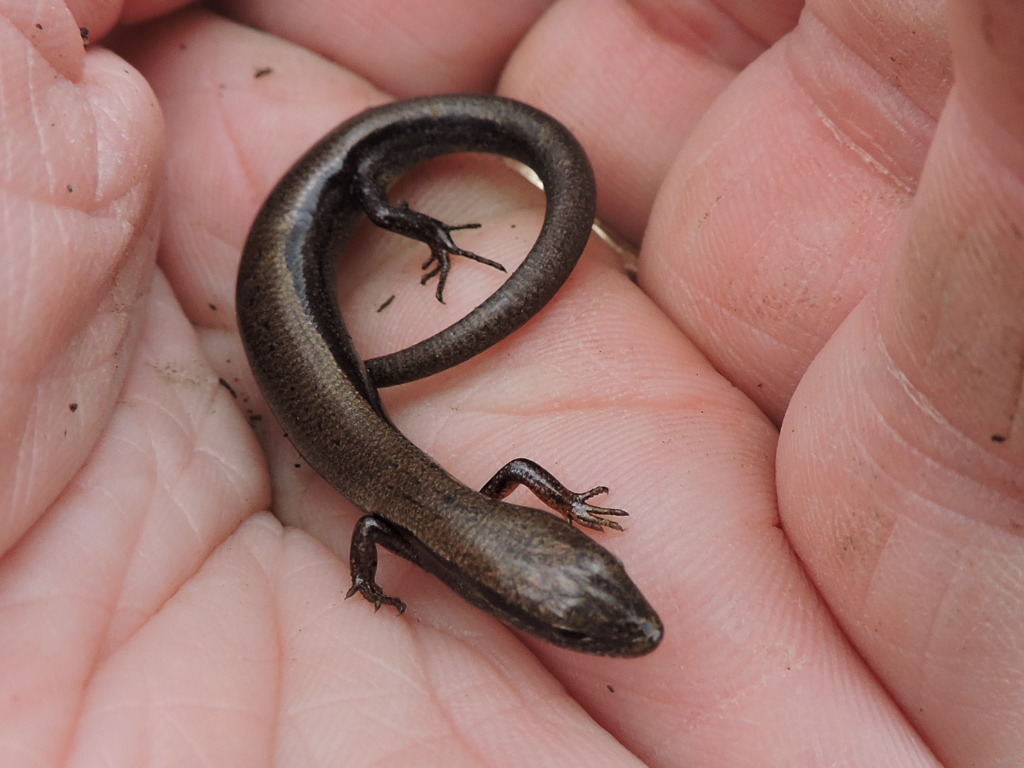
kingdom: Animalia
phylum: Chordata
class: Squamata
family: Scincidae
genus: Scincella
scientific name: Scincella lateralis
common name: Ground skink
